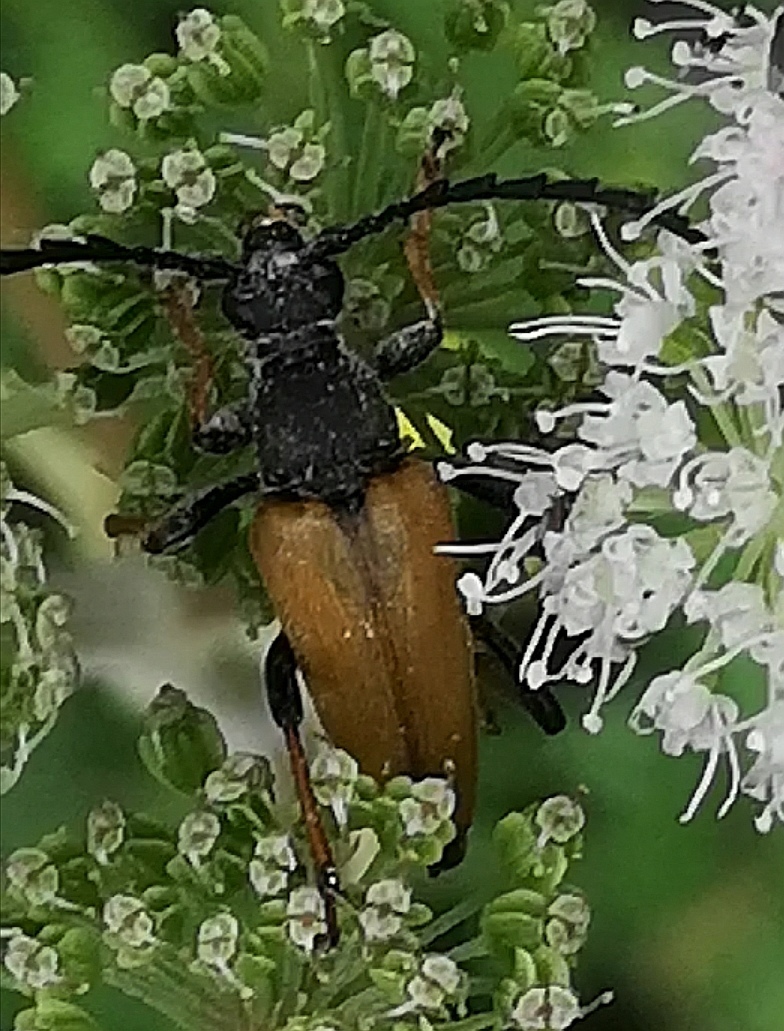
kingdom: Animalia
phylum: Arthropoda
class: Insecta
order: Coleoptera
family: Cerambycidae
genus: Stictoleptura
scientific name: Stictoleptura rubra
